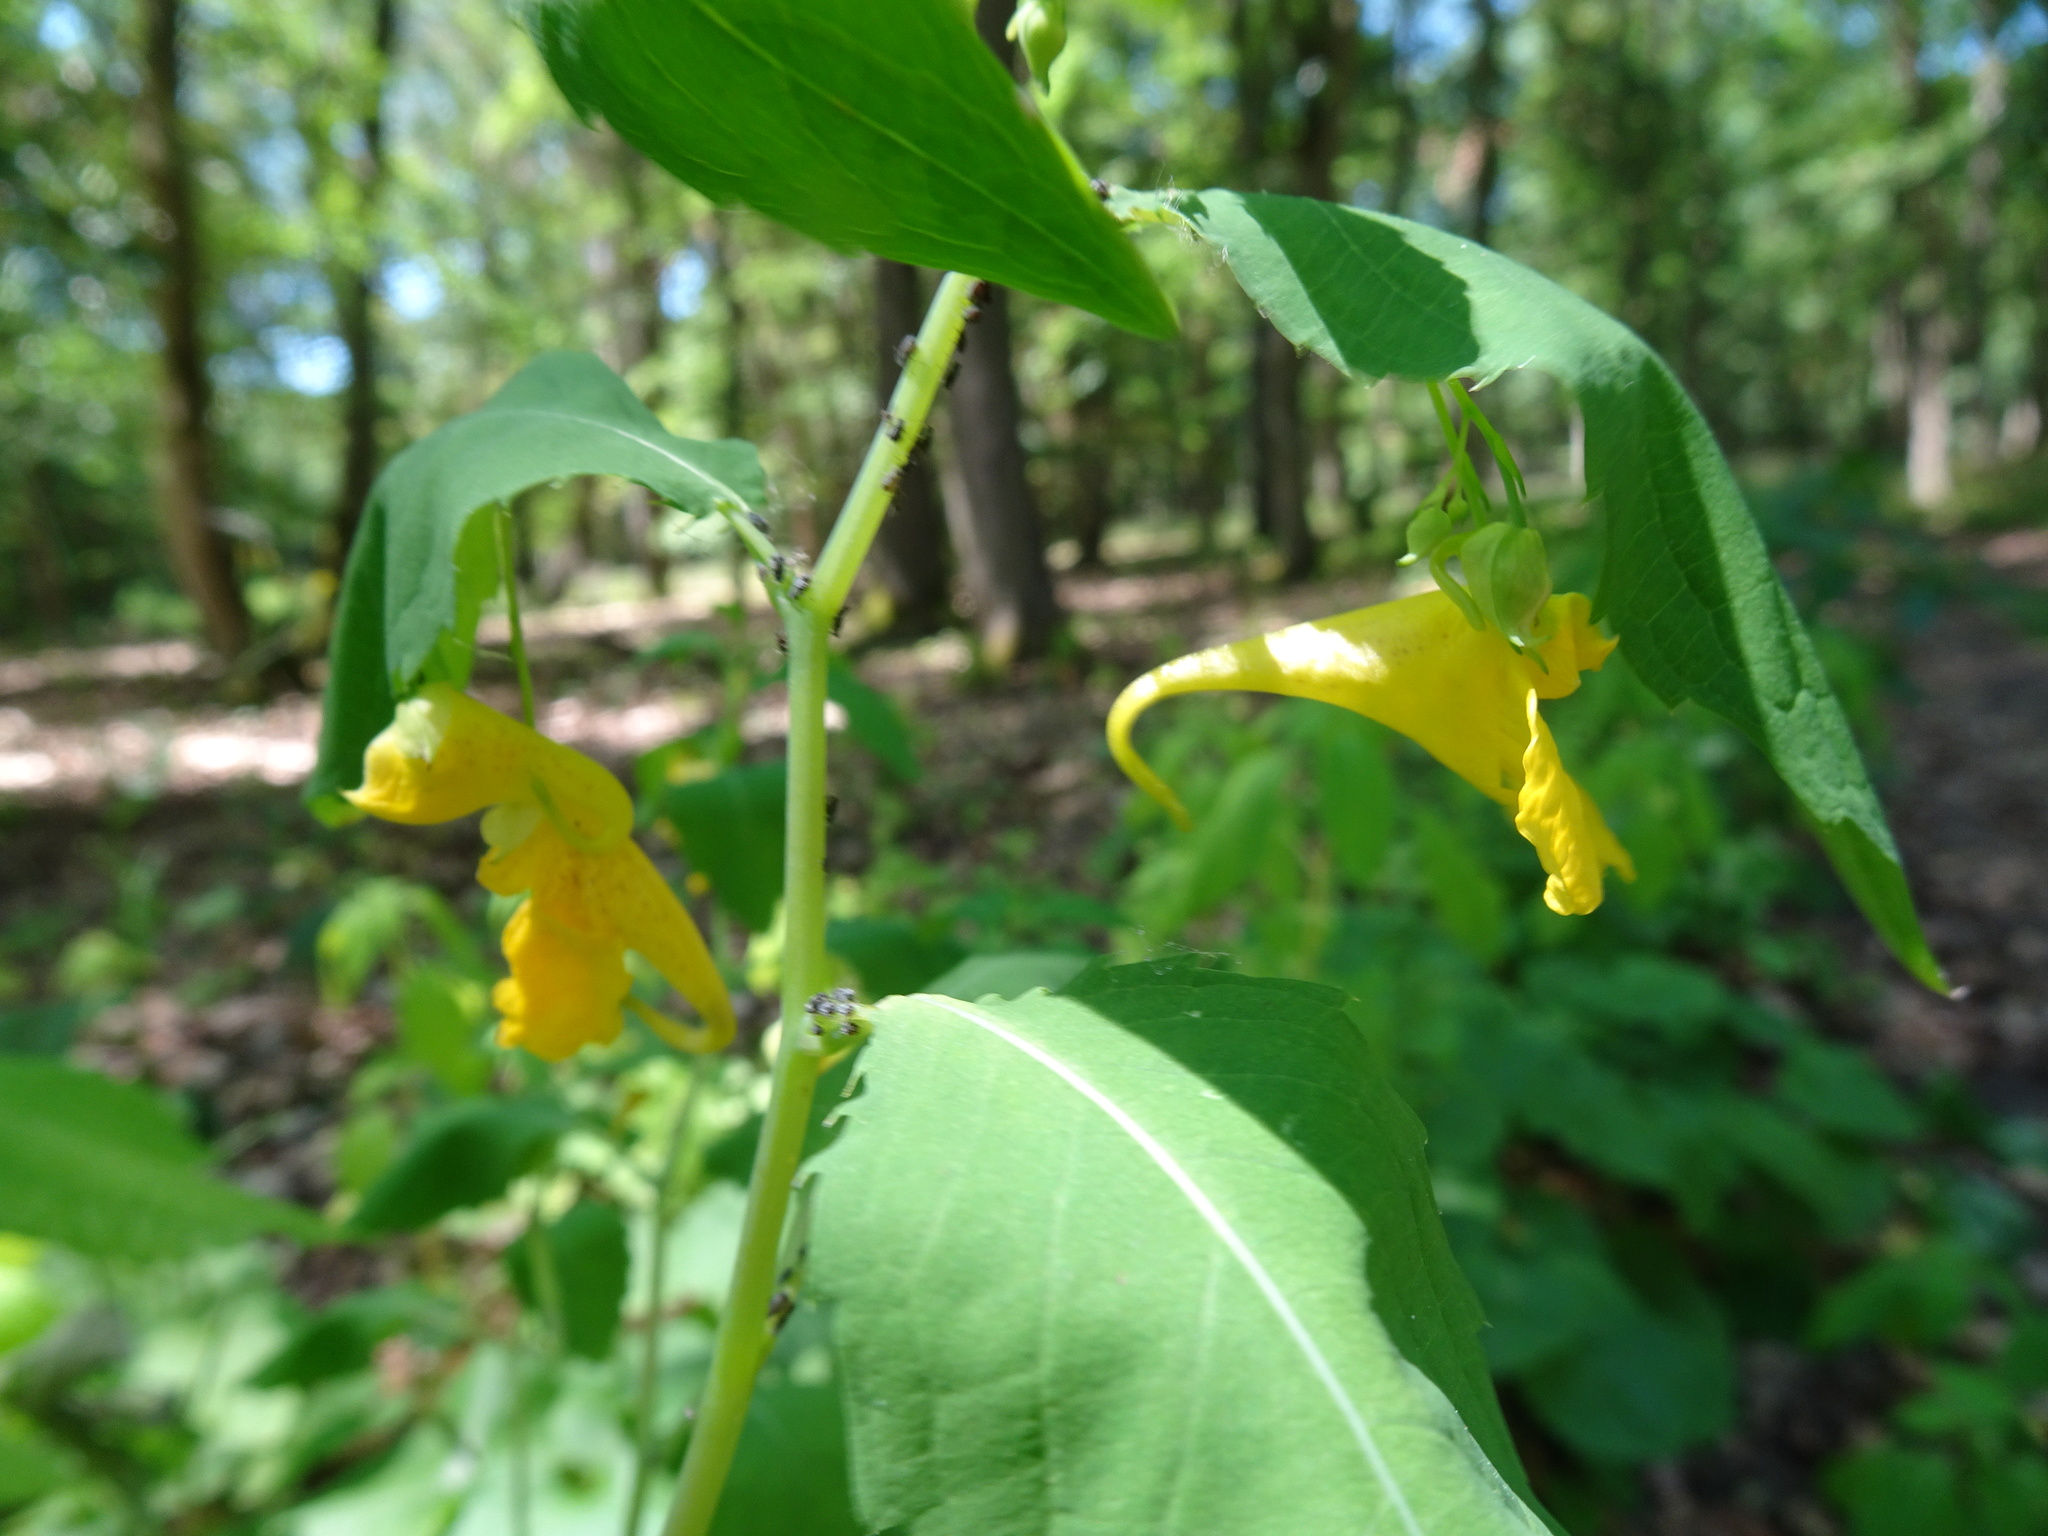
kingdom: Plantae
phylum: Tracheophyta
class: Magnoliopsida
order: Ericales
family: Balsaminaceae
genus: Impatiens
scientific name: Impatiens noli-tangere
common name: Touch-me-not balsam
